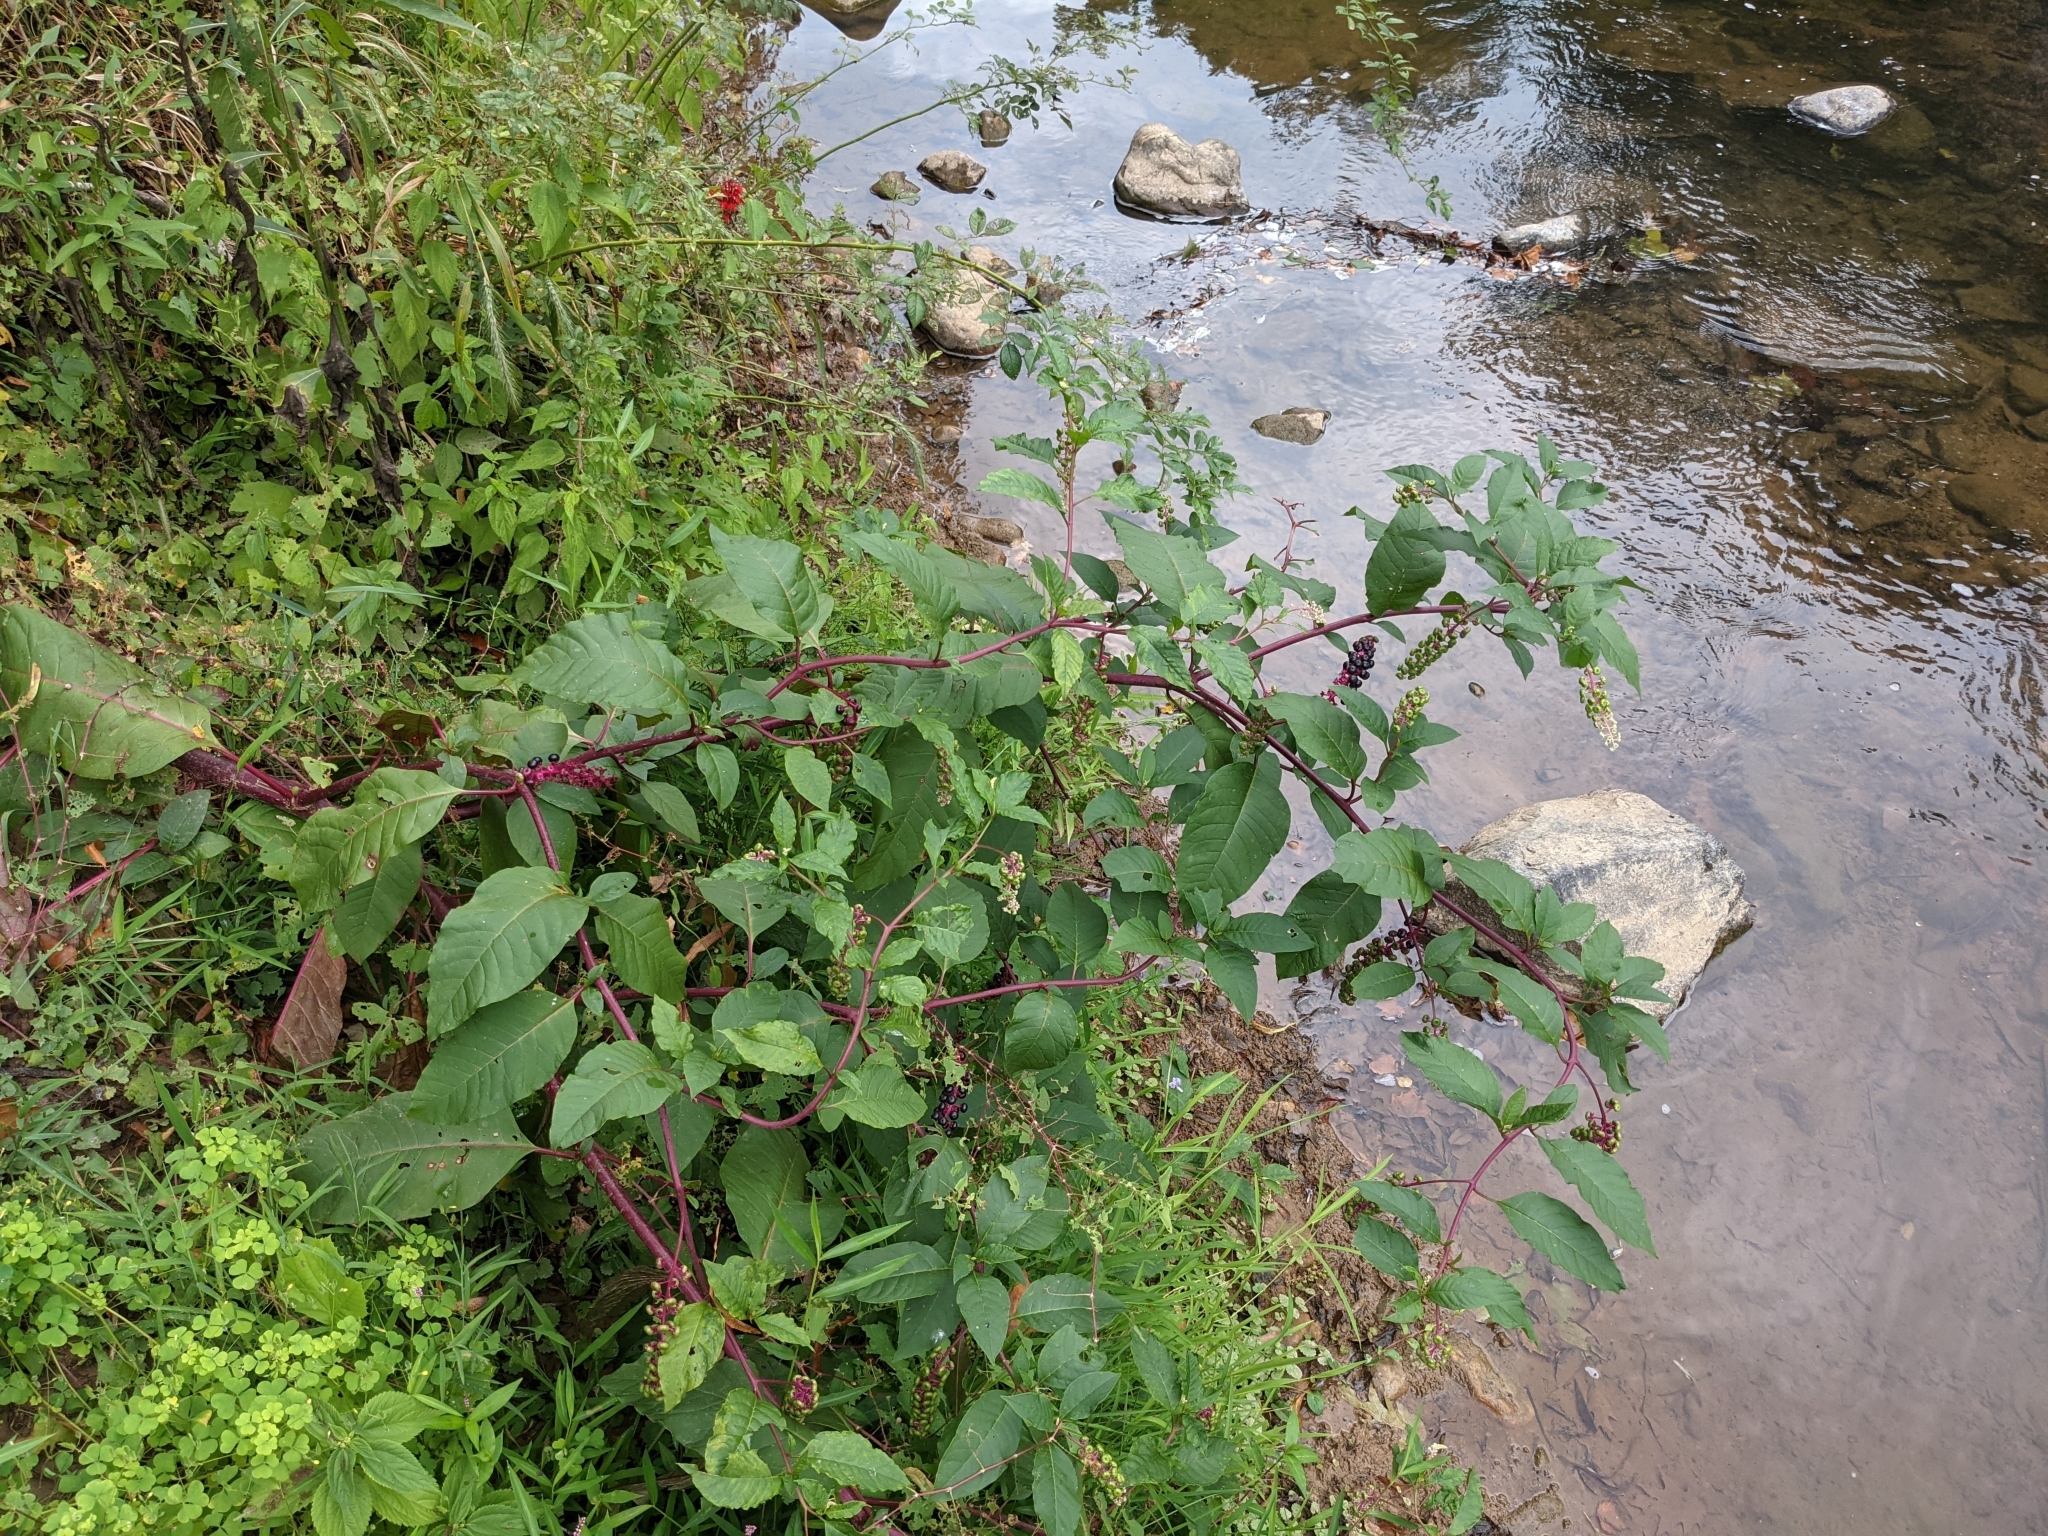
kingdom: Plantae
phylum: Tracheophyta
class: Magnoliopsida
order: Caryophyllales
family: Phytolaccaceae
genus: Phytolacca
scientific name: Phytolacca americana
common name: American pokeweed
